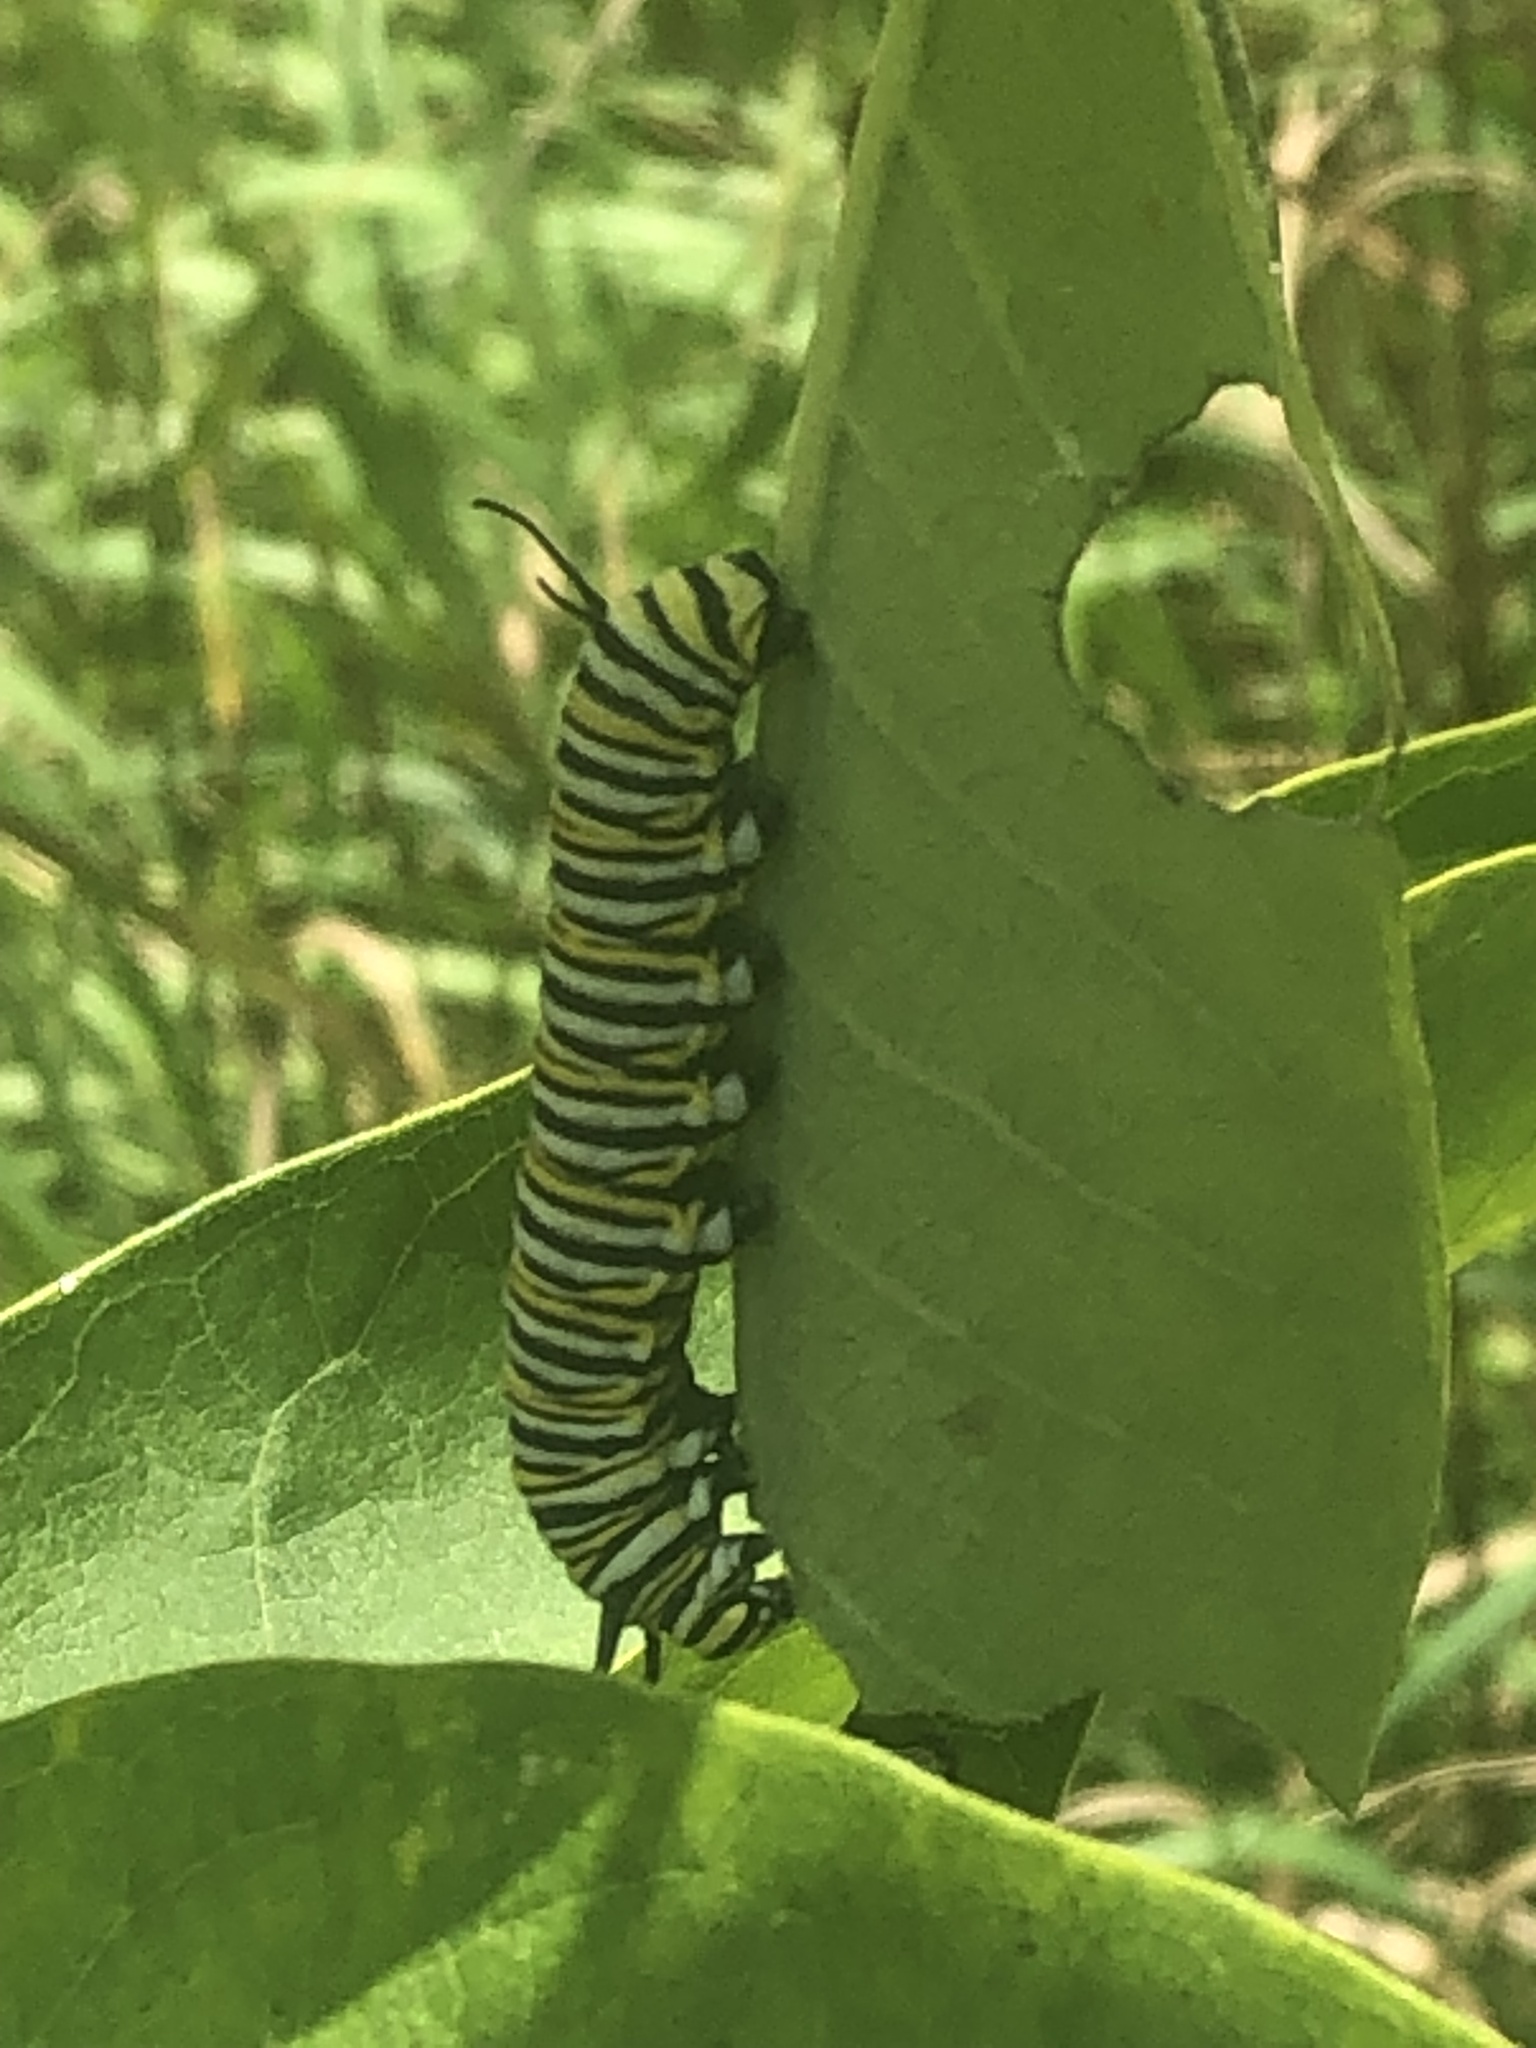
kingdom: Animalia
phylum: Arthropoda
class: Insecta
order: Lepidoptera
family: Nymphalidae
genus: Danaus
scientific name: Danaus plexippus
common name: Monarch
